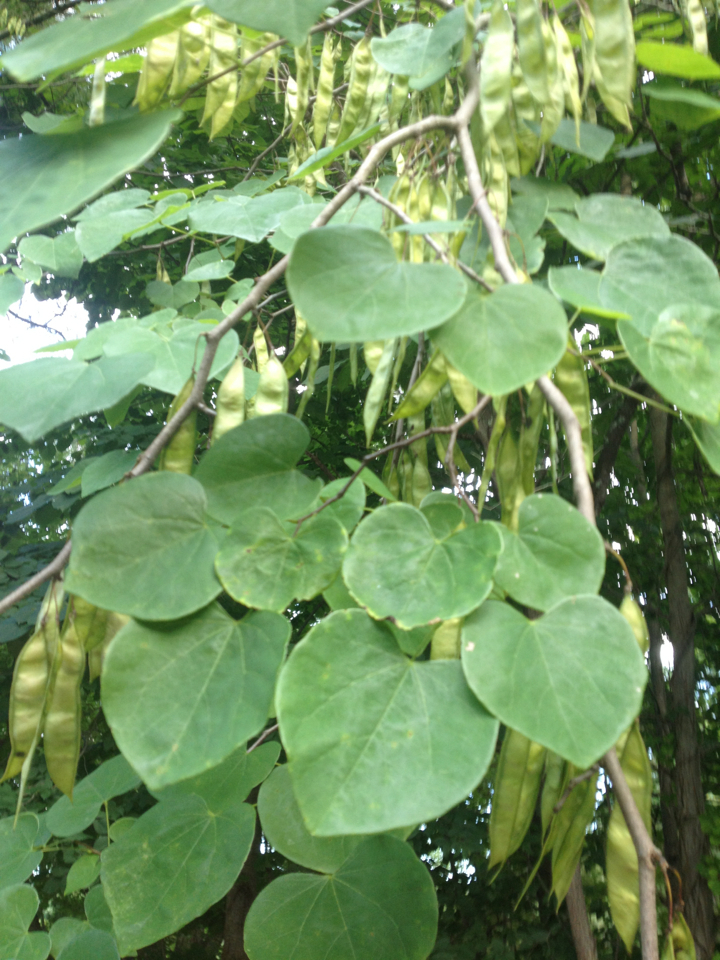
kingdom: Plantae
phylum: Tracheophyta
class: Magnoliopsida
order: Fabales
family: Fabaceae
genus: Cercis
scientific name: Cercis canadensis
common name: Eastern redbud
